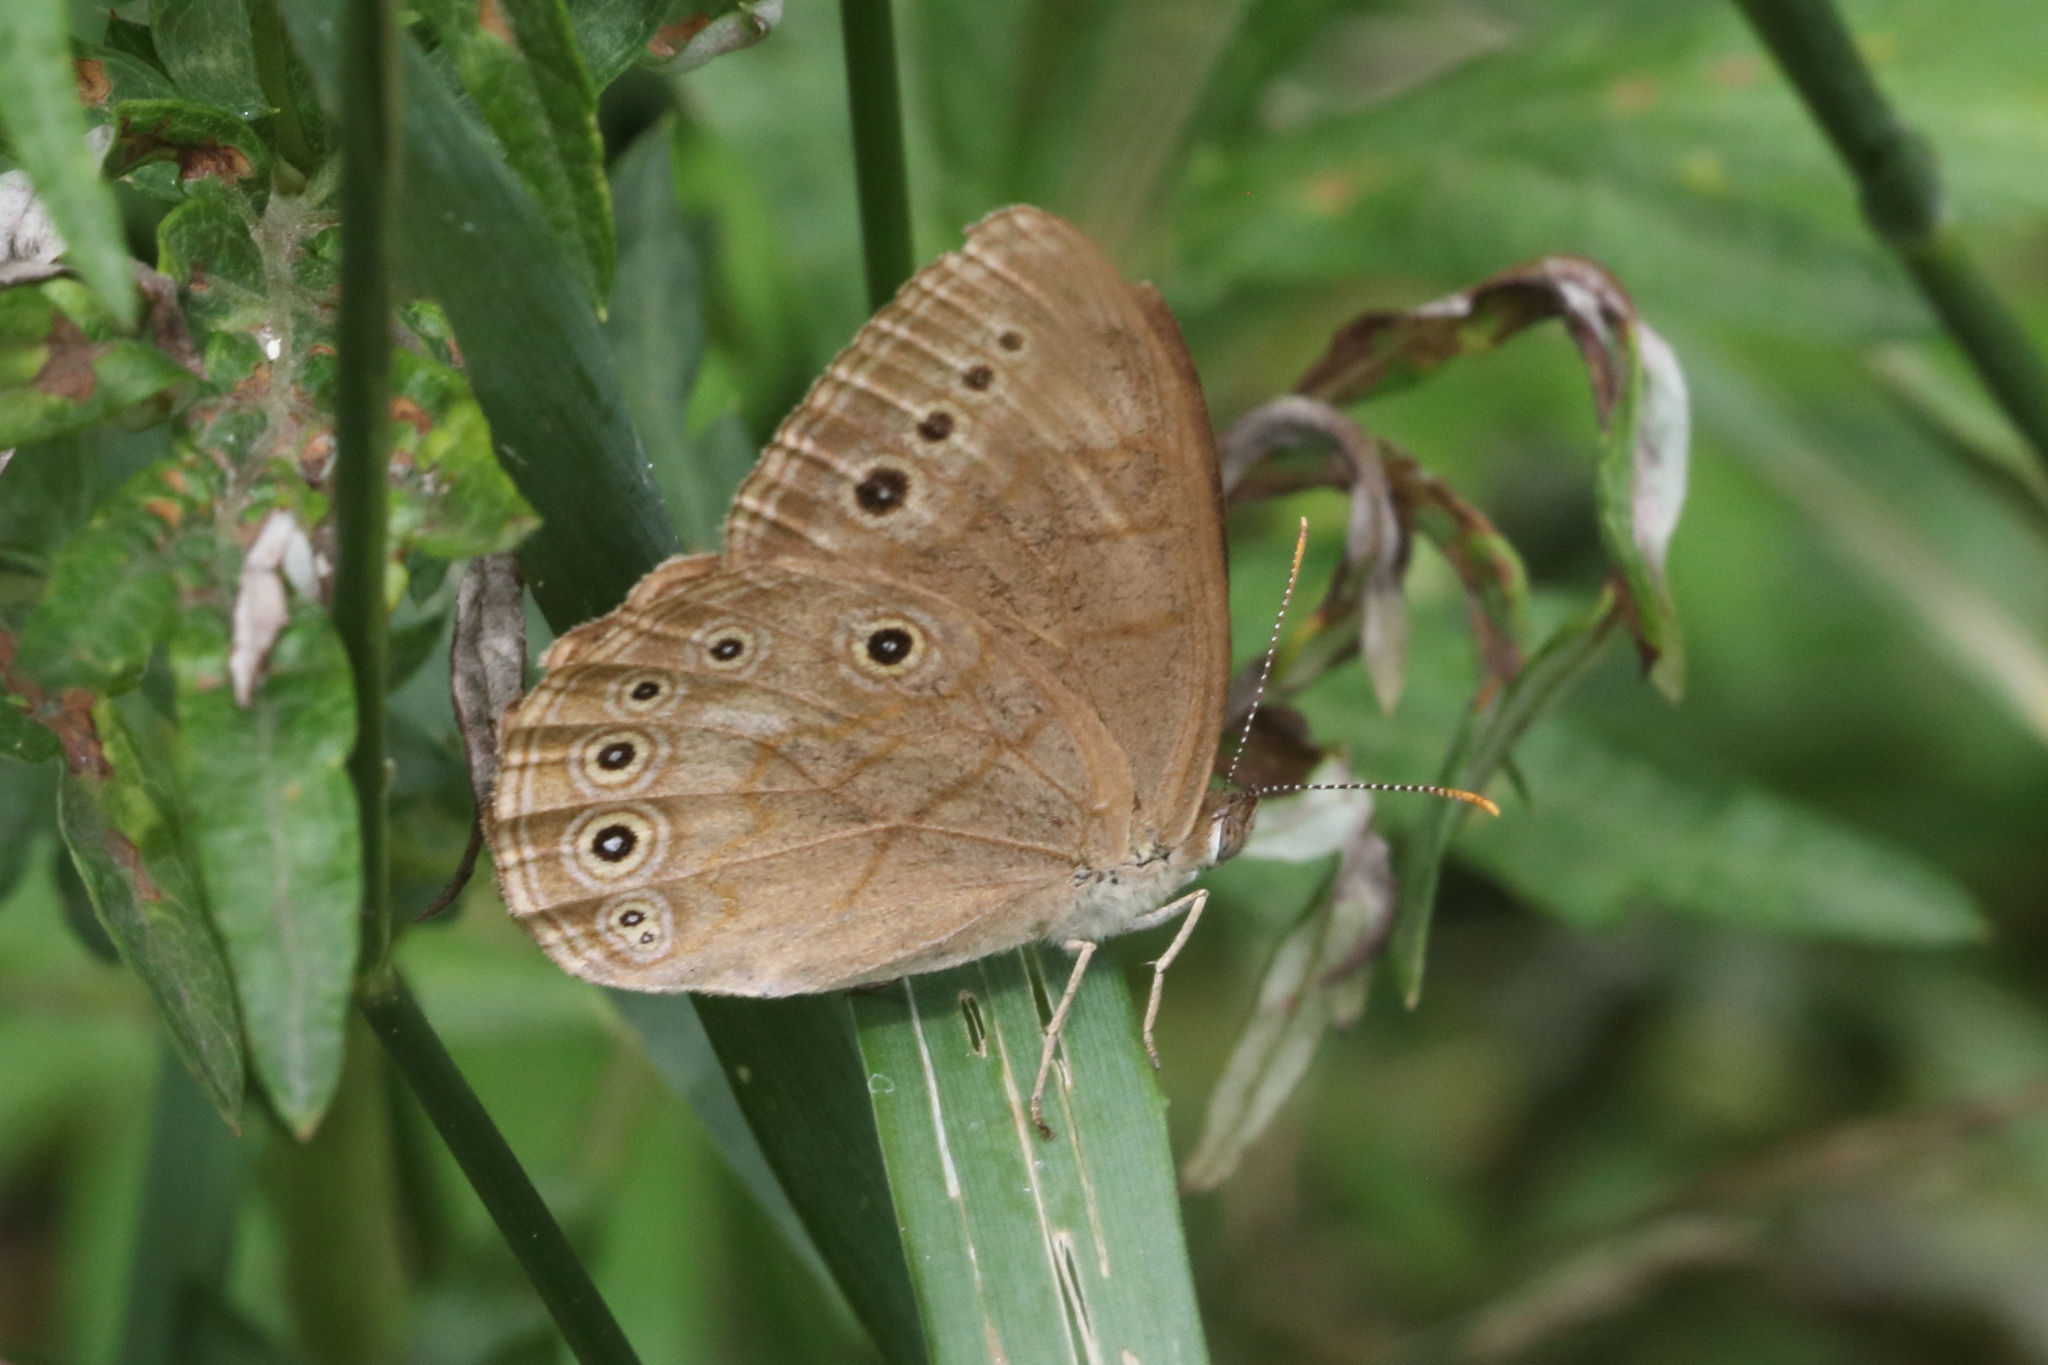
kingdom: Animalia
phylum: Arthropoda
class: Insecta
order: Lepidoptera
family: Nymphalidae
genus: Lethe
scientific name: Lethe eurydice
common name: Eyed brown
